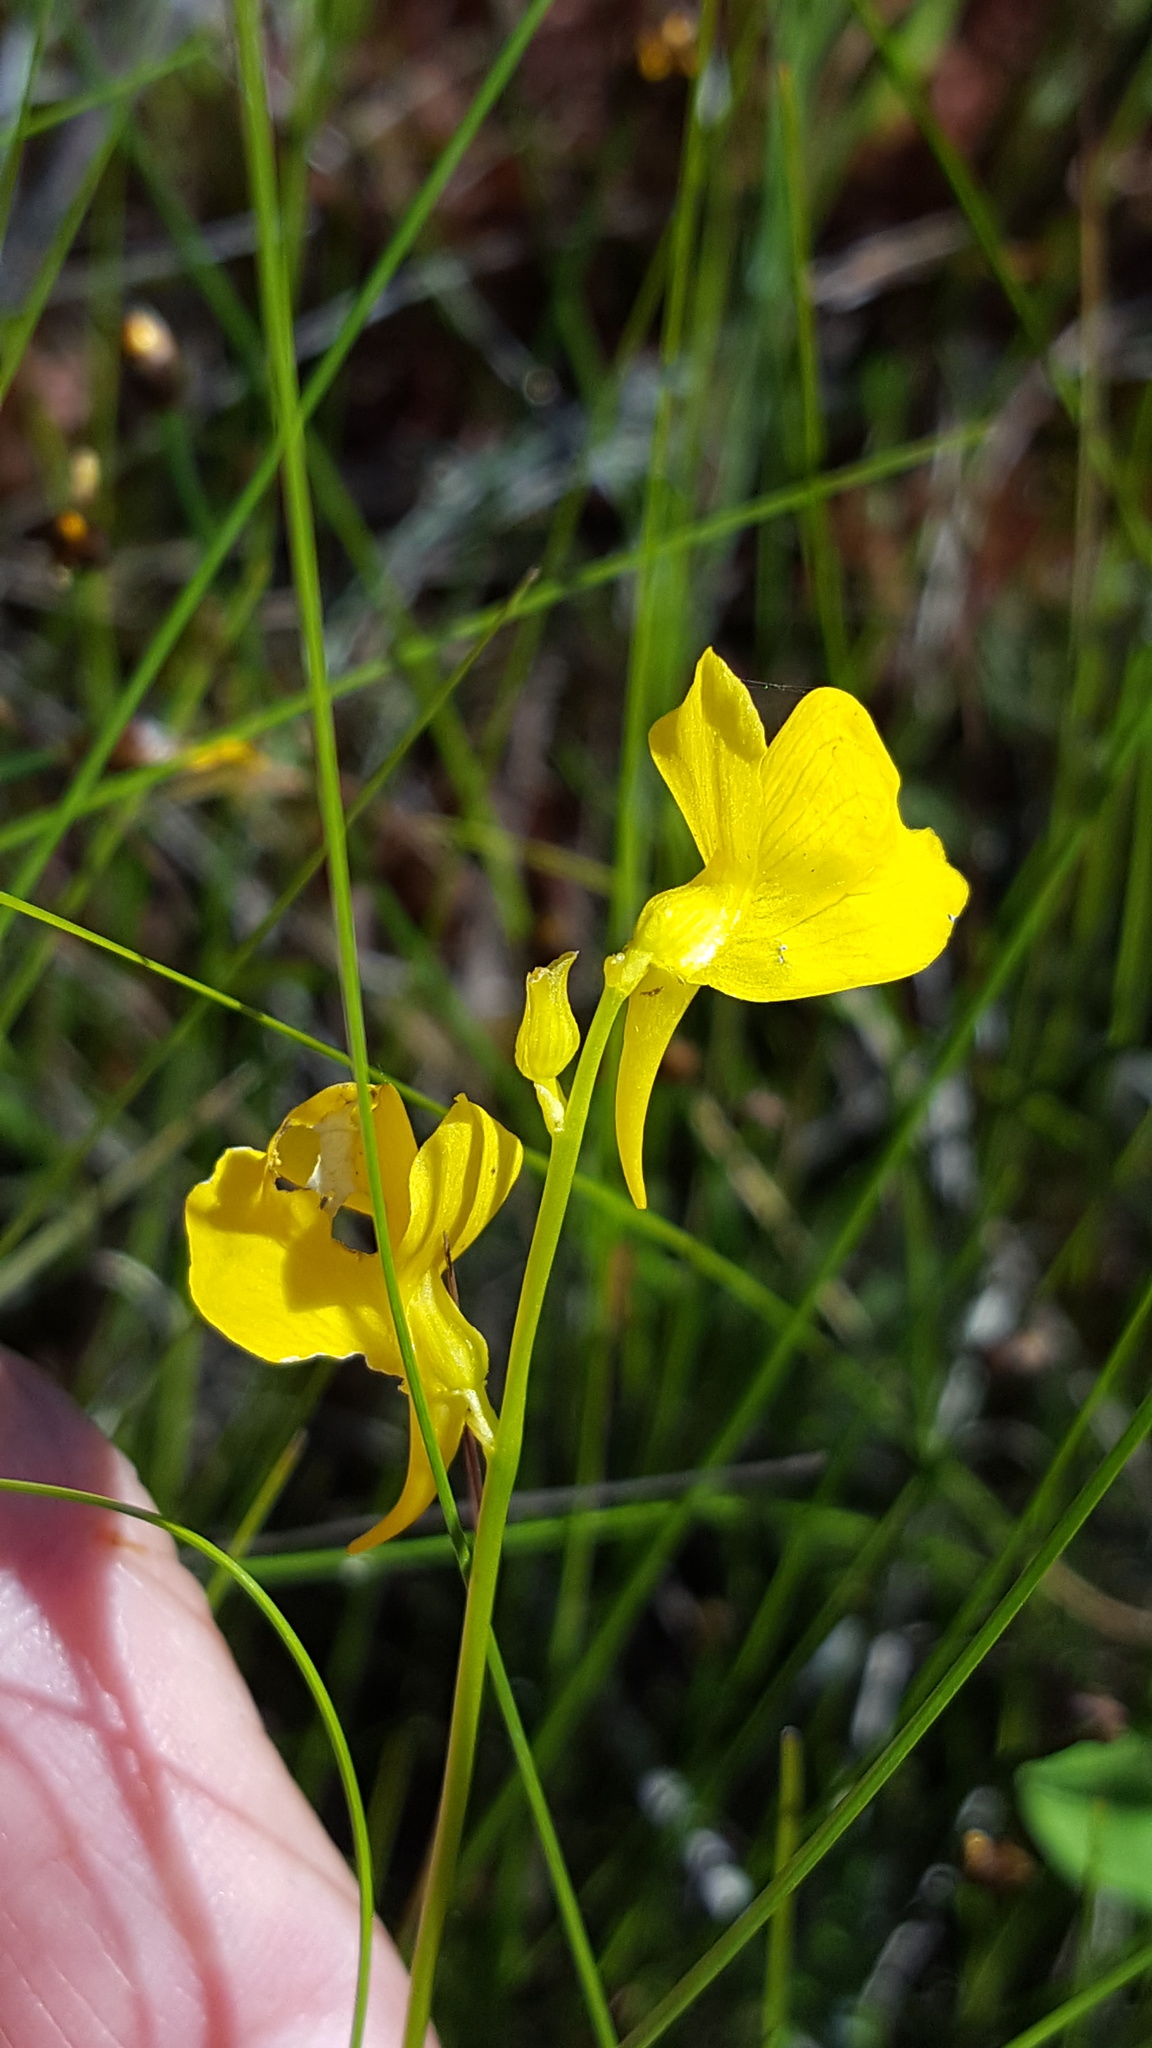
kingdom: Plantae
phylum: Tracheophyta
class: Magnoliopsida
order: Lamiales
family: Lentibulariaceae
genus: Utricularia
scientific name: Utricularia cornuta
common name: Horned bladderwort
